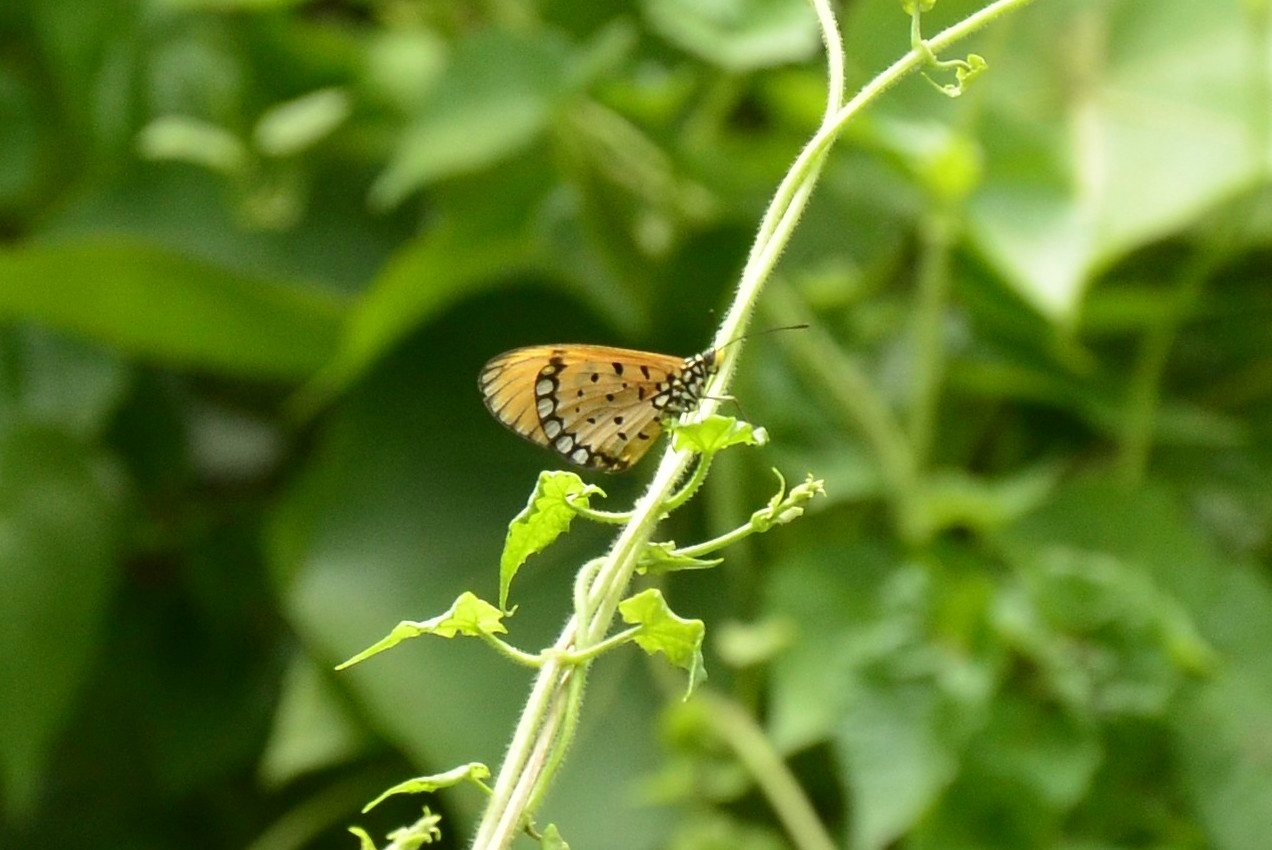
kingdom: Animalia
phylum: Arthropoda
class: Insecta
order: Lepidoptera
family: Nymphalidae
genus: Acraea
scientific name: Acraea terpsicore
